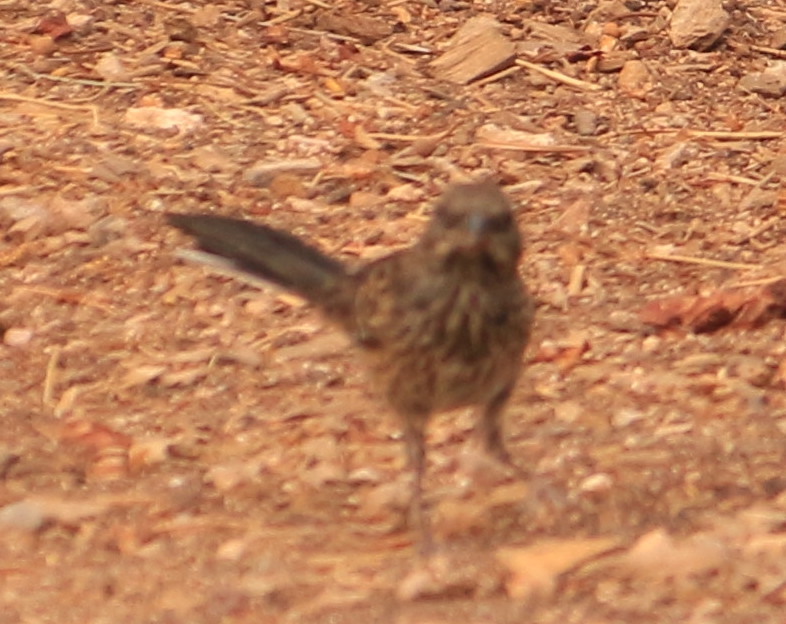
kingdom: Animalia
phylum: Chordata
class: Aves
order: Passeriformes
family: Passerellidae
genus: Pipilo
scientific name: Pipilo maculatus
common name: Spotted towhee
